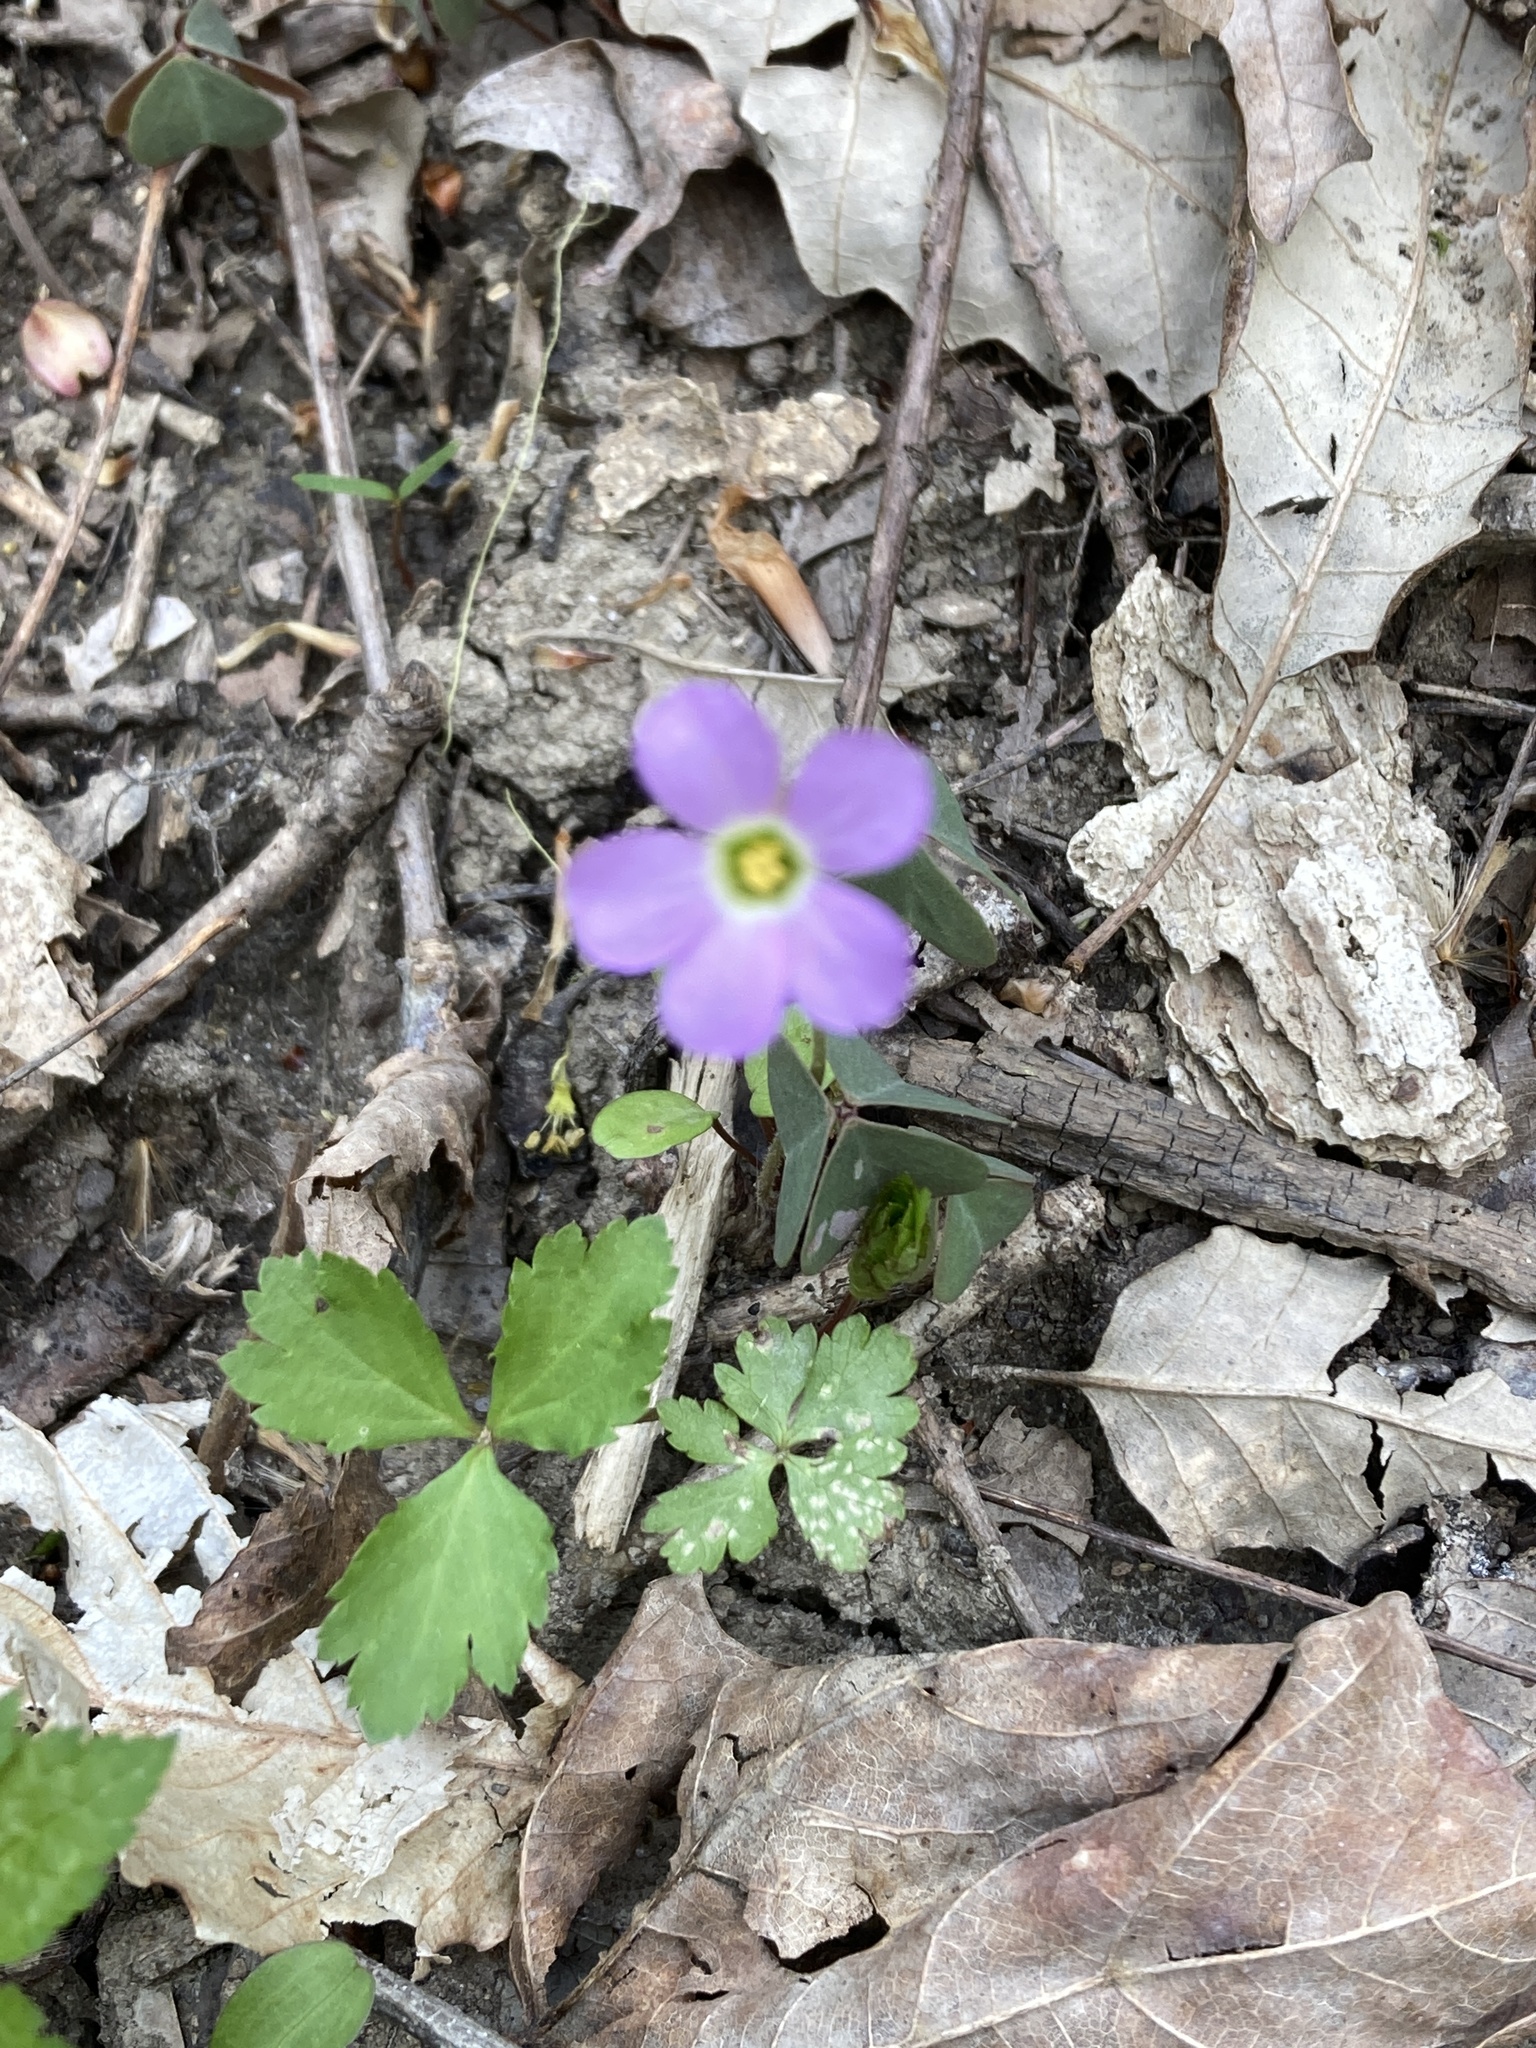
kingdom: Plantae
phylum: Tracheophyta
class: Magnoliopsida
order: Oxalidales
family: Oxalidaceae
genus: Oxalis
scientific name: Oxalis violacea
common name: Violet wood-sorrel
